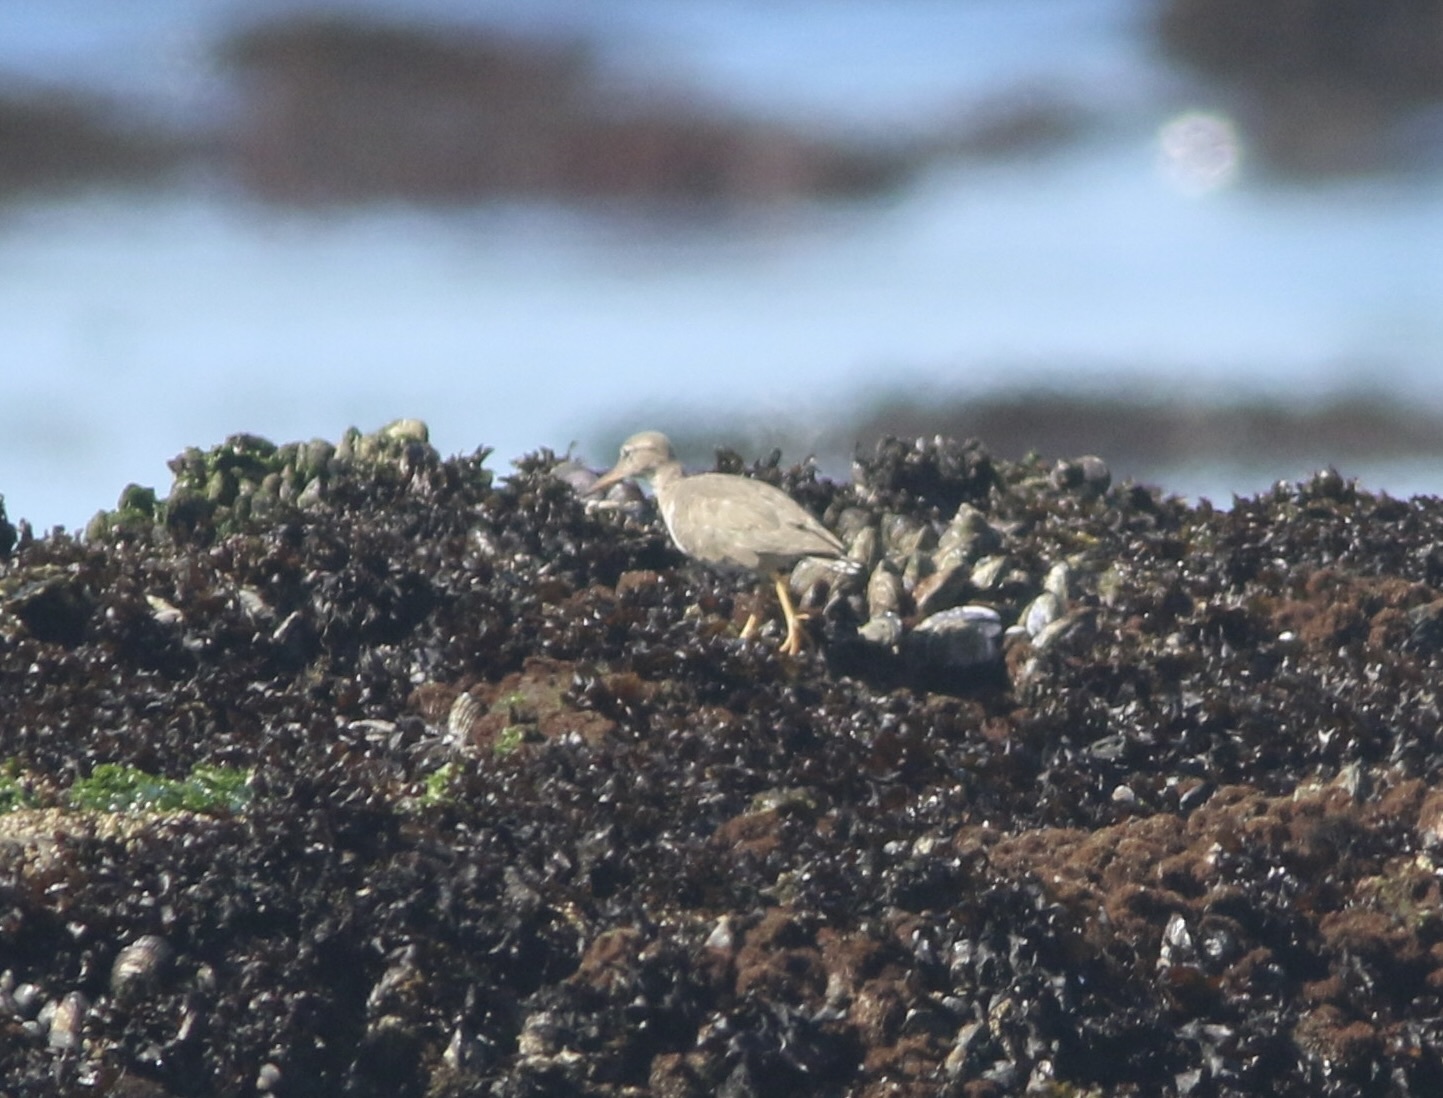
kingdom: Animalia
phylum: Chordata
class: Aves
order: Charadriiformes
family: Scolopacidae
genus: Actitis
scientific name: Actitis macularius
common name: Spotted sandpiper
